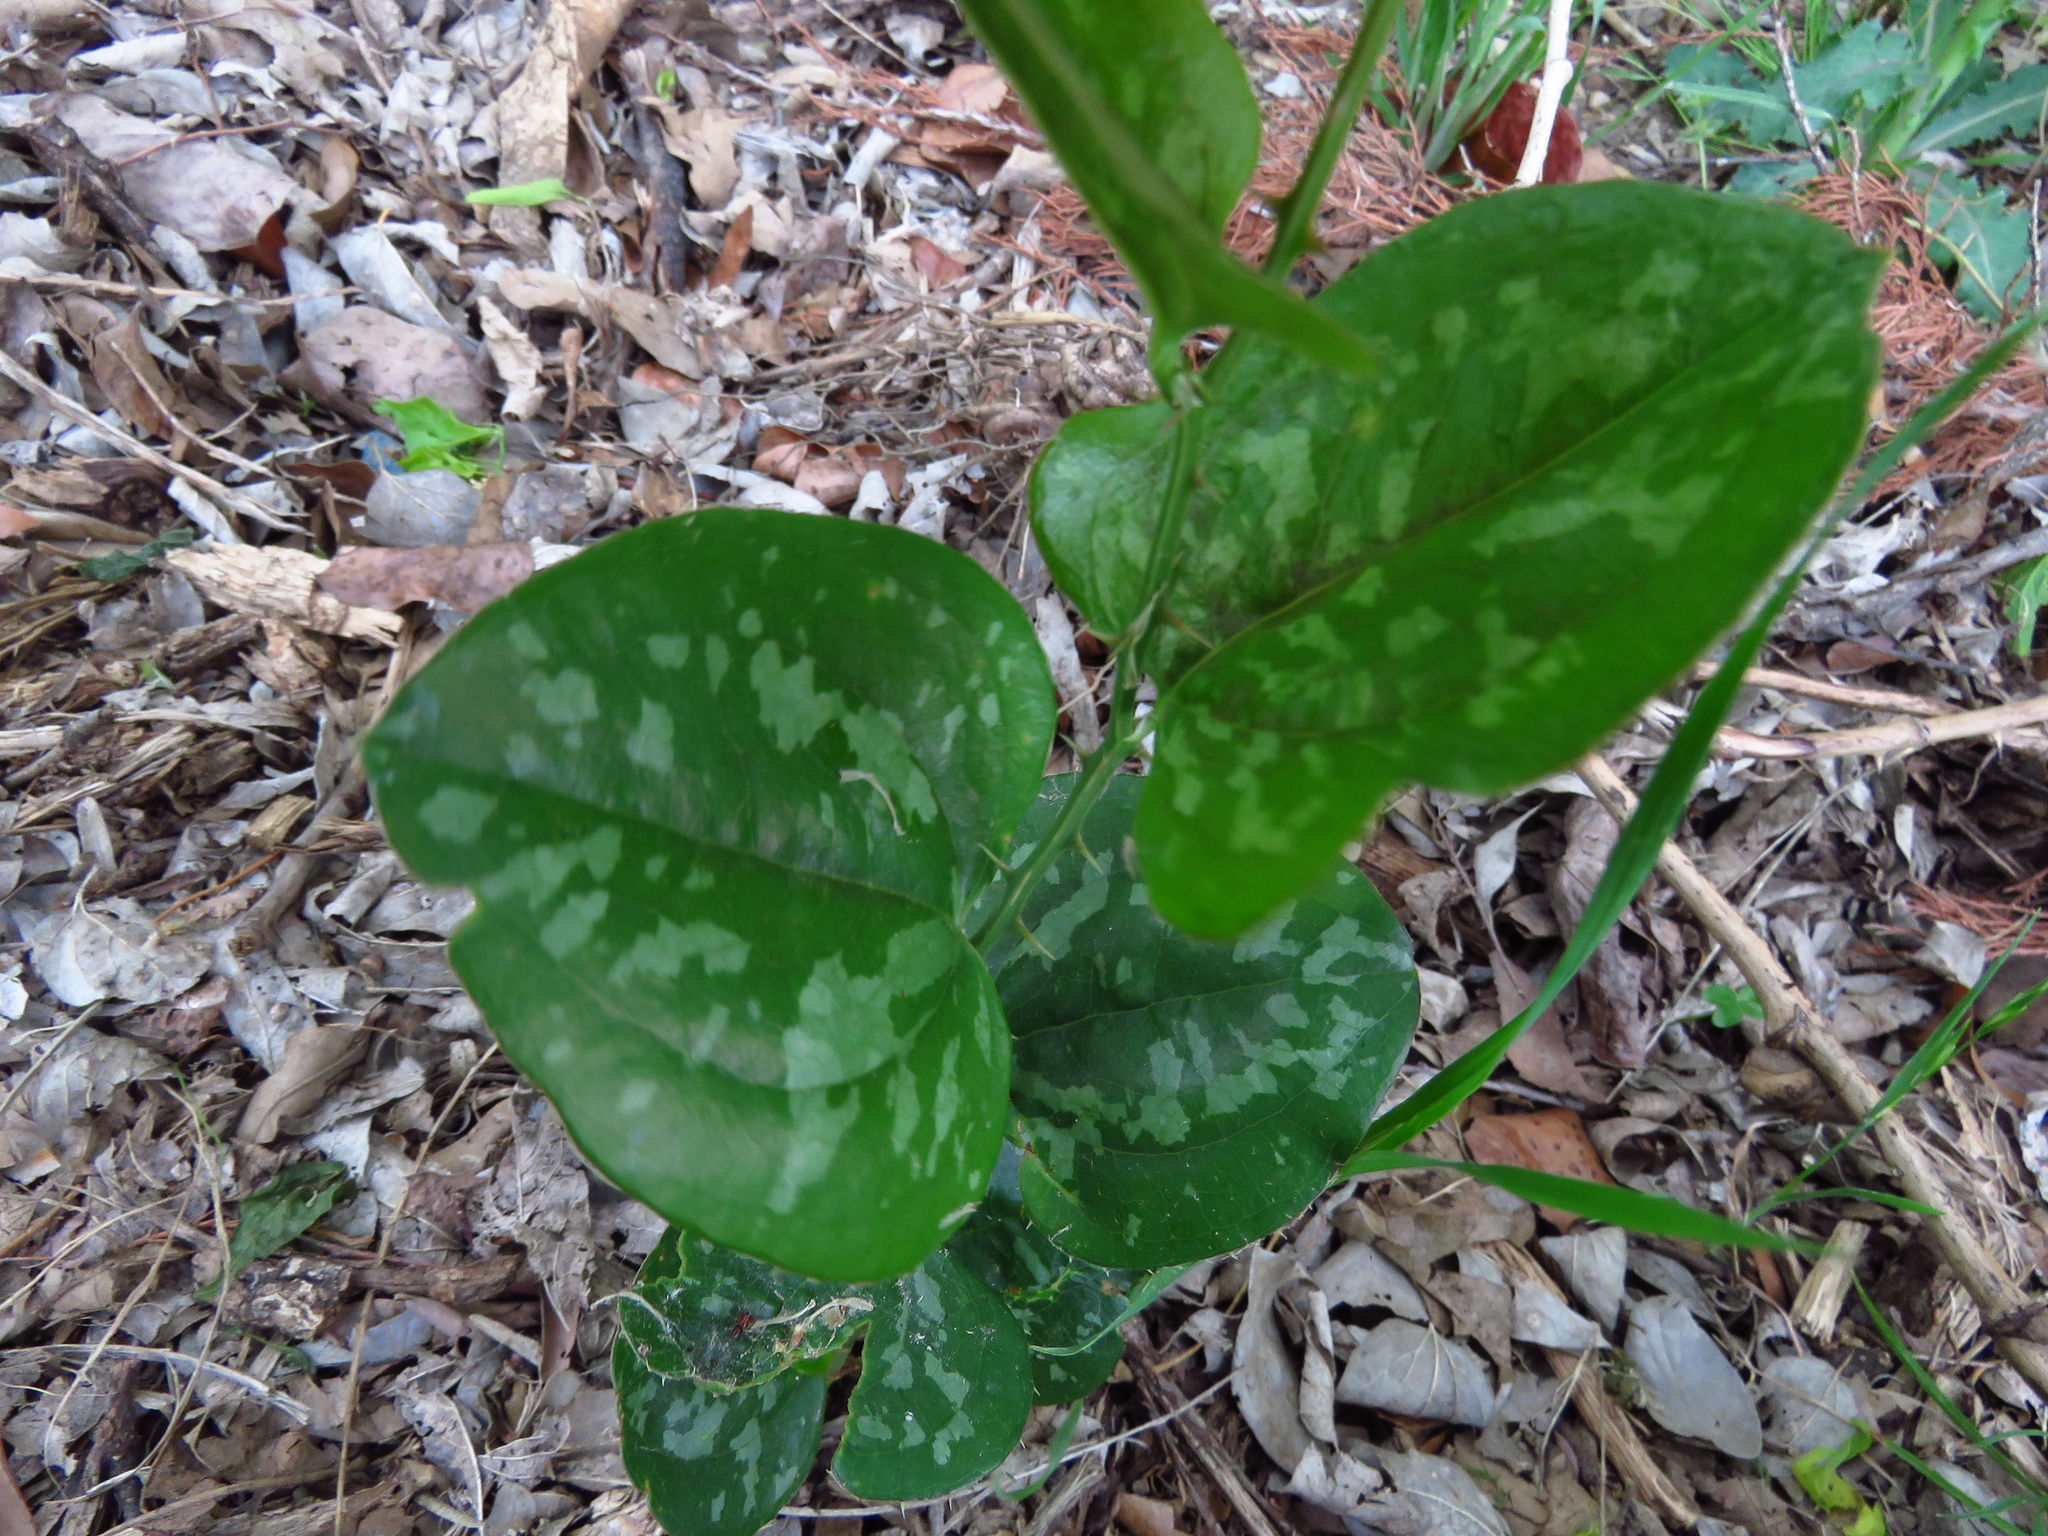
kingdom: Plantae
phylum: Tracheophyta
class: Liliopsida
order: Liliales
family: Smilacaceae
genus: Smilax
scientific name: Smilax bona-nox
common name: Catbrier
